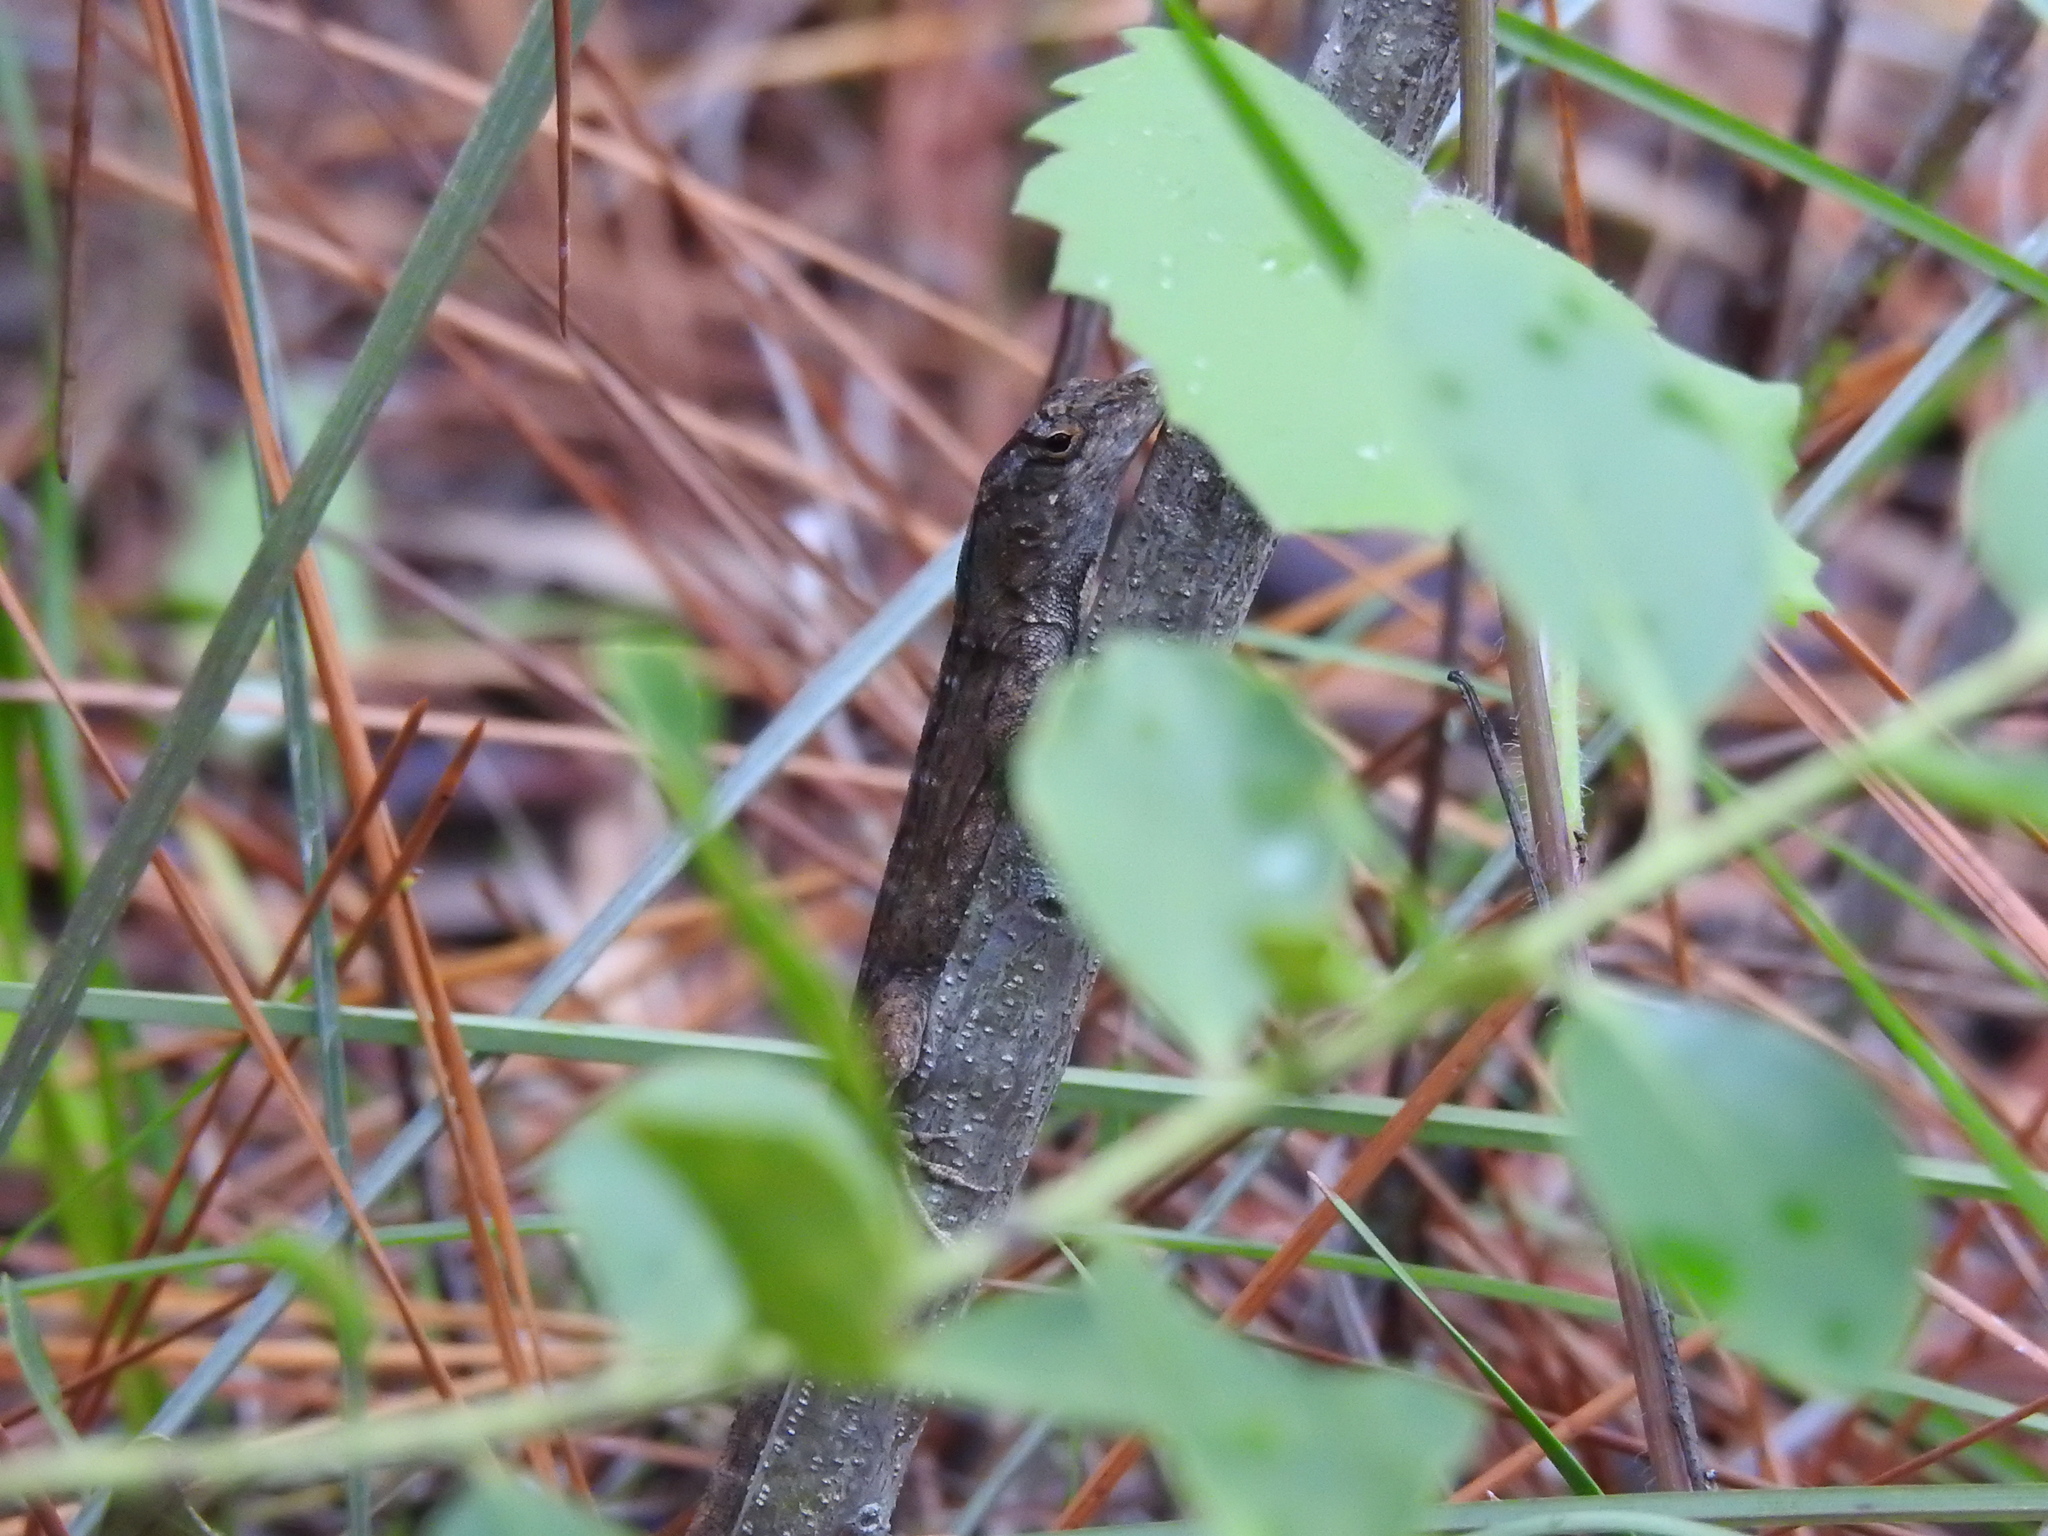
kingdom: Animalia
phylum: Chordata
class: Squamata
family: Dactyloidae
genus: Anolis
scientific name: Anolis sagrei
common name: Brown anole
